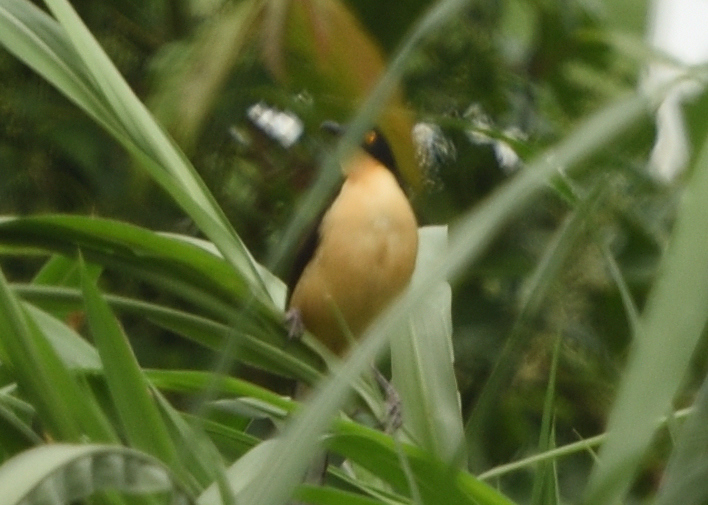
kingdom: Animalia
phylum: Chordata
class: Aves
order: Passeriformes
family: Donacobiidae
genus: Donacobius
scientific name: Donacobius atricapilla
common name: Black-capped donacobius
